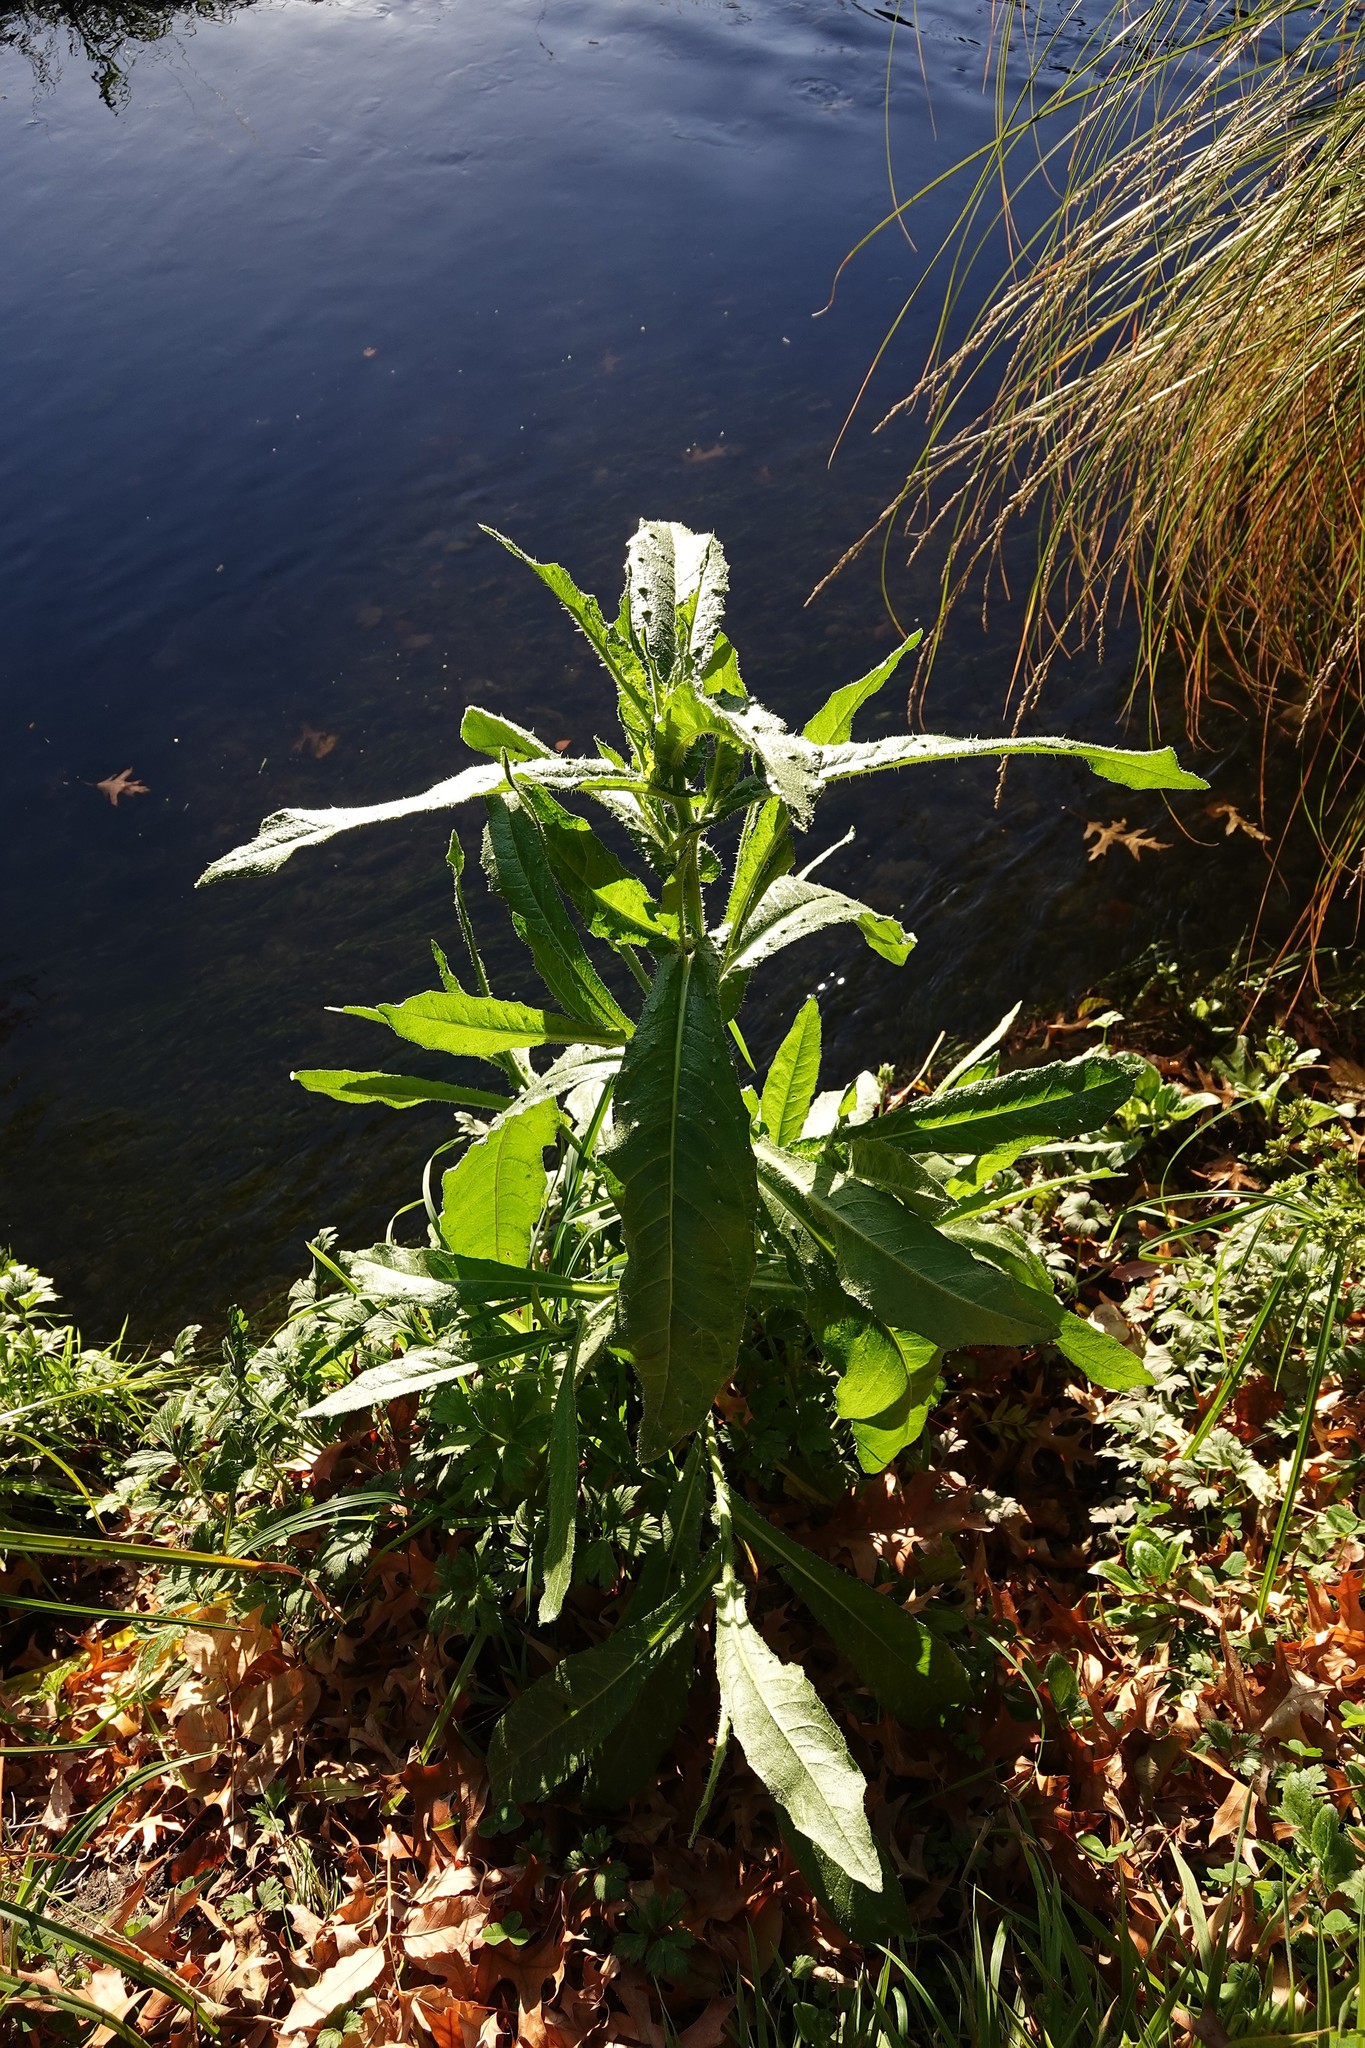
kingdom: Plantae
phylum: Tracheophyta
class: Magnoliopsida
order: Asterales
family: Asteraceae
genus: Helminthotheca
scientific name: Helminthotheca echioides
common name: Ox-tongue
